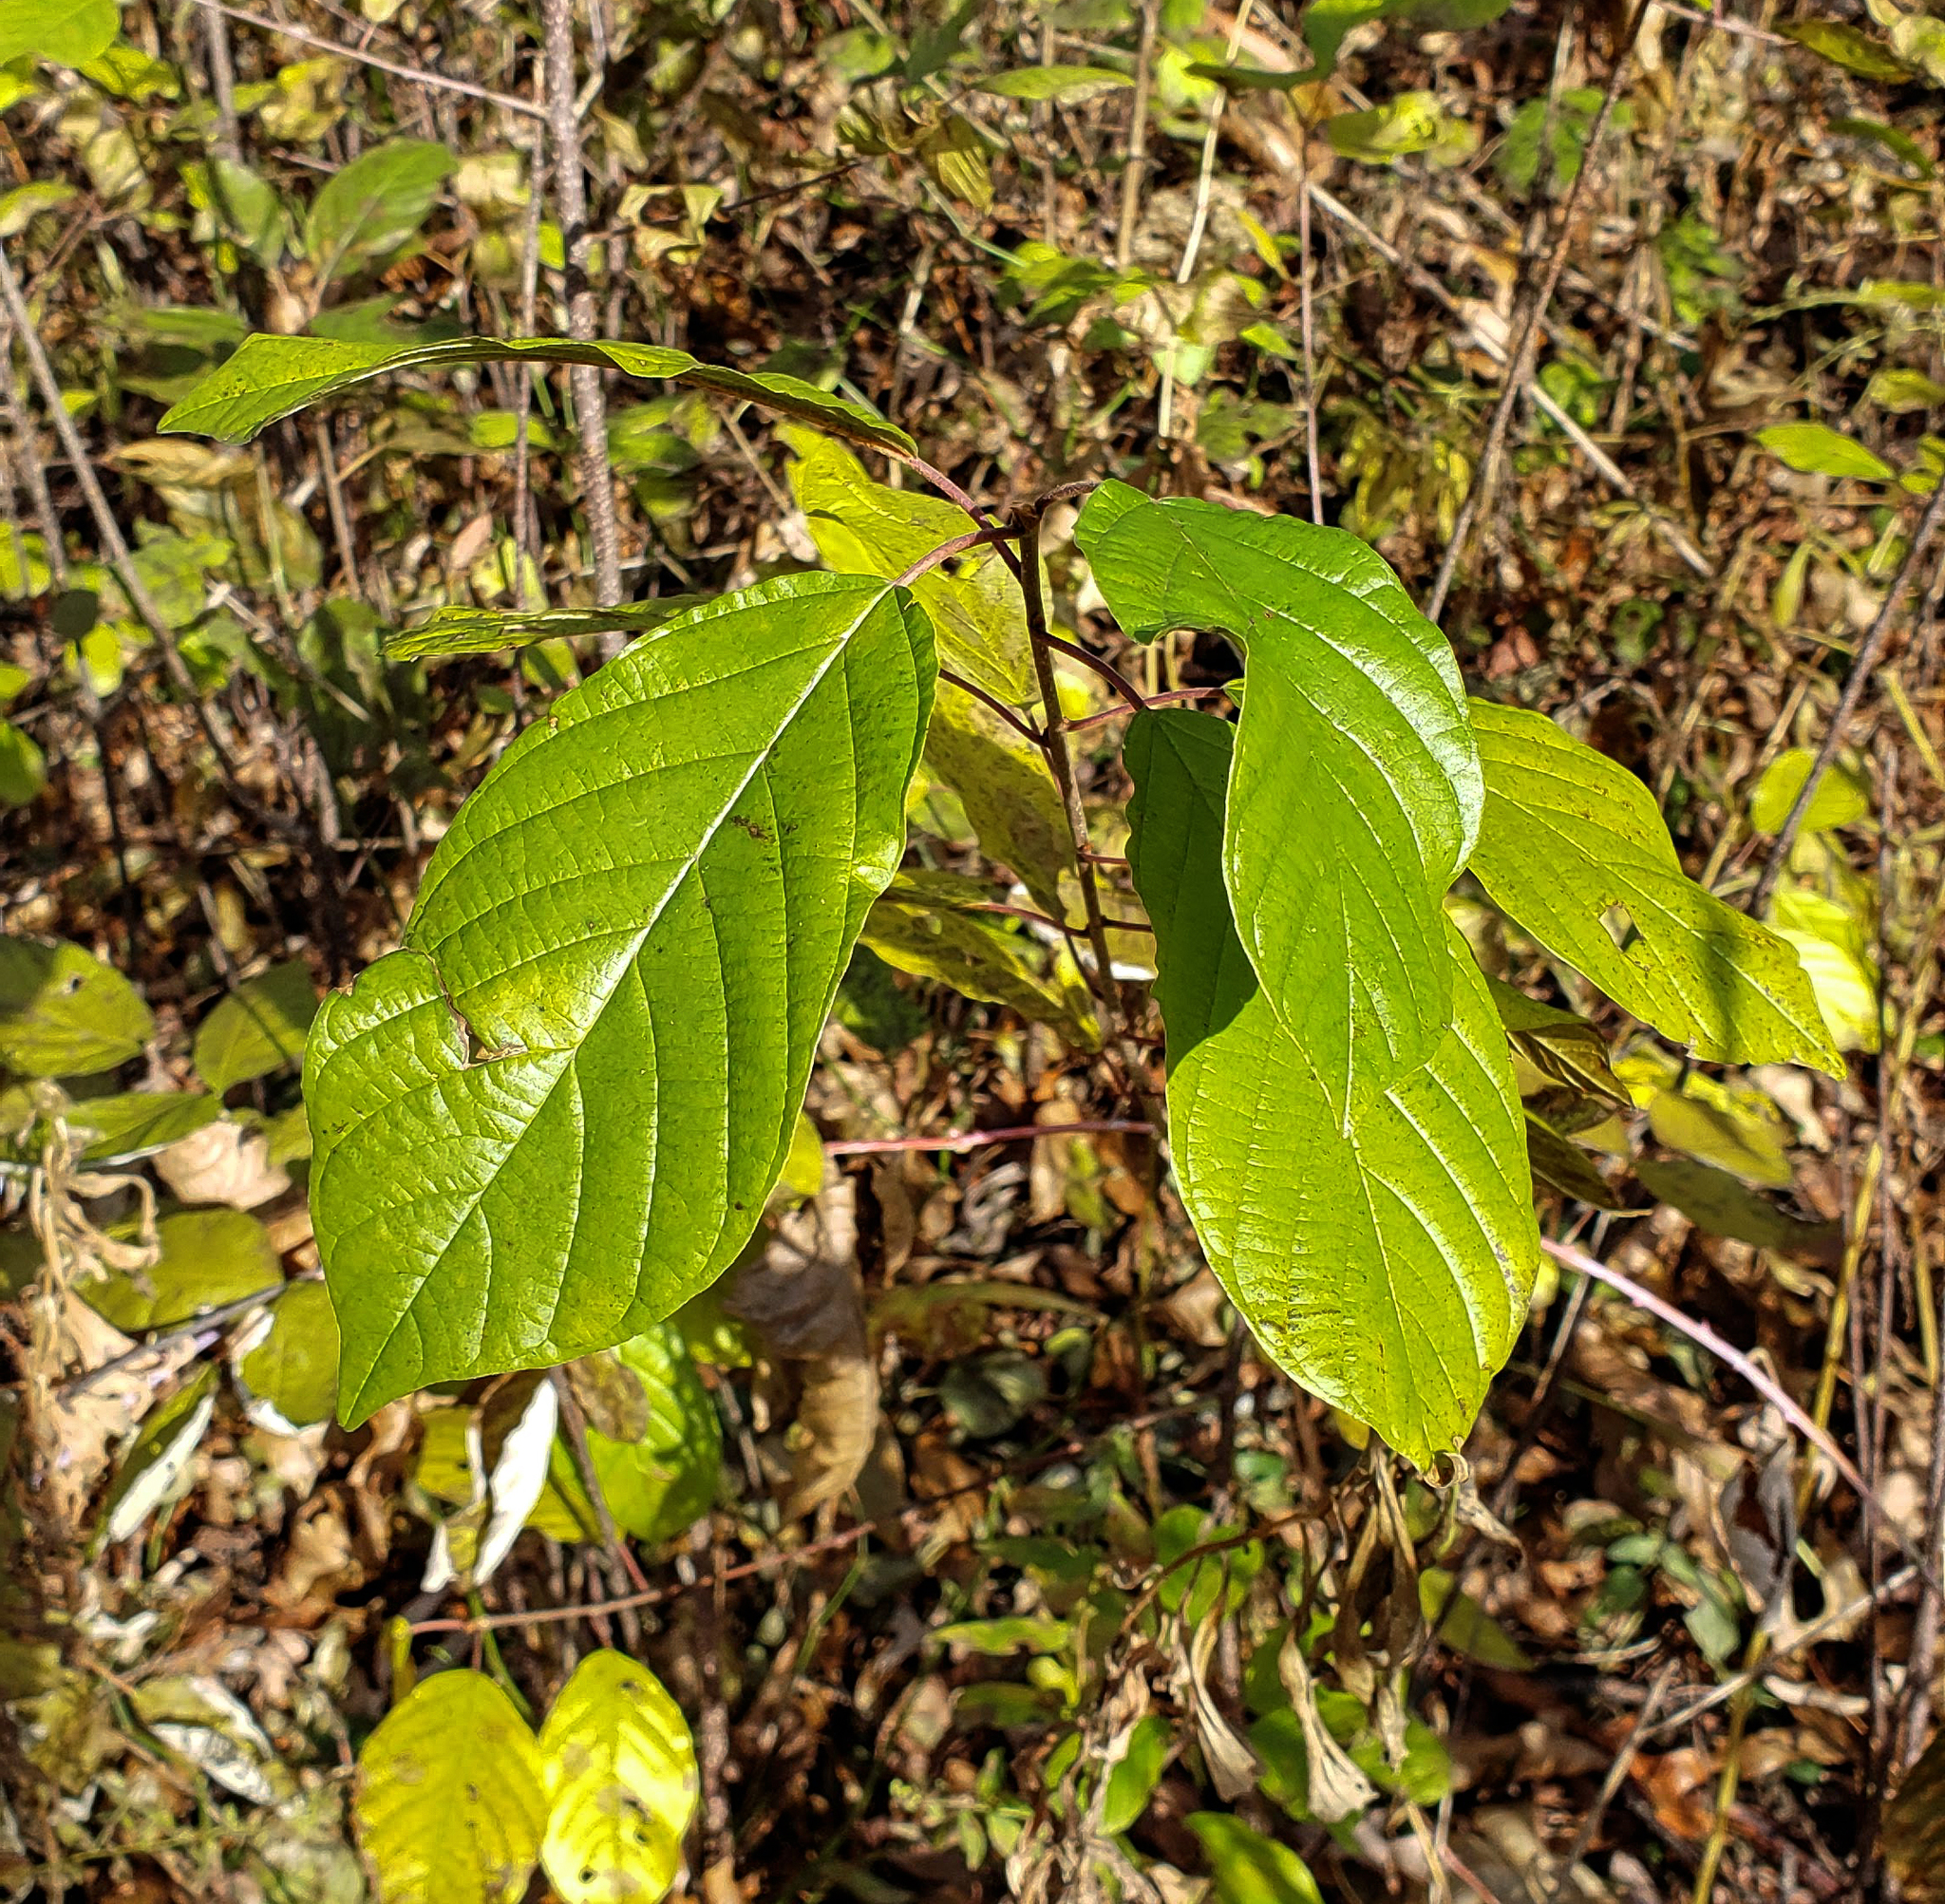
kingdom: Plantae
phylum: Tracheophyta
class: Magnoliopsida
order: Rosales
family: Rhamnaceae
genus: Frangula
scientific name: Frangula alnus
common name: Alder buckthorn
